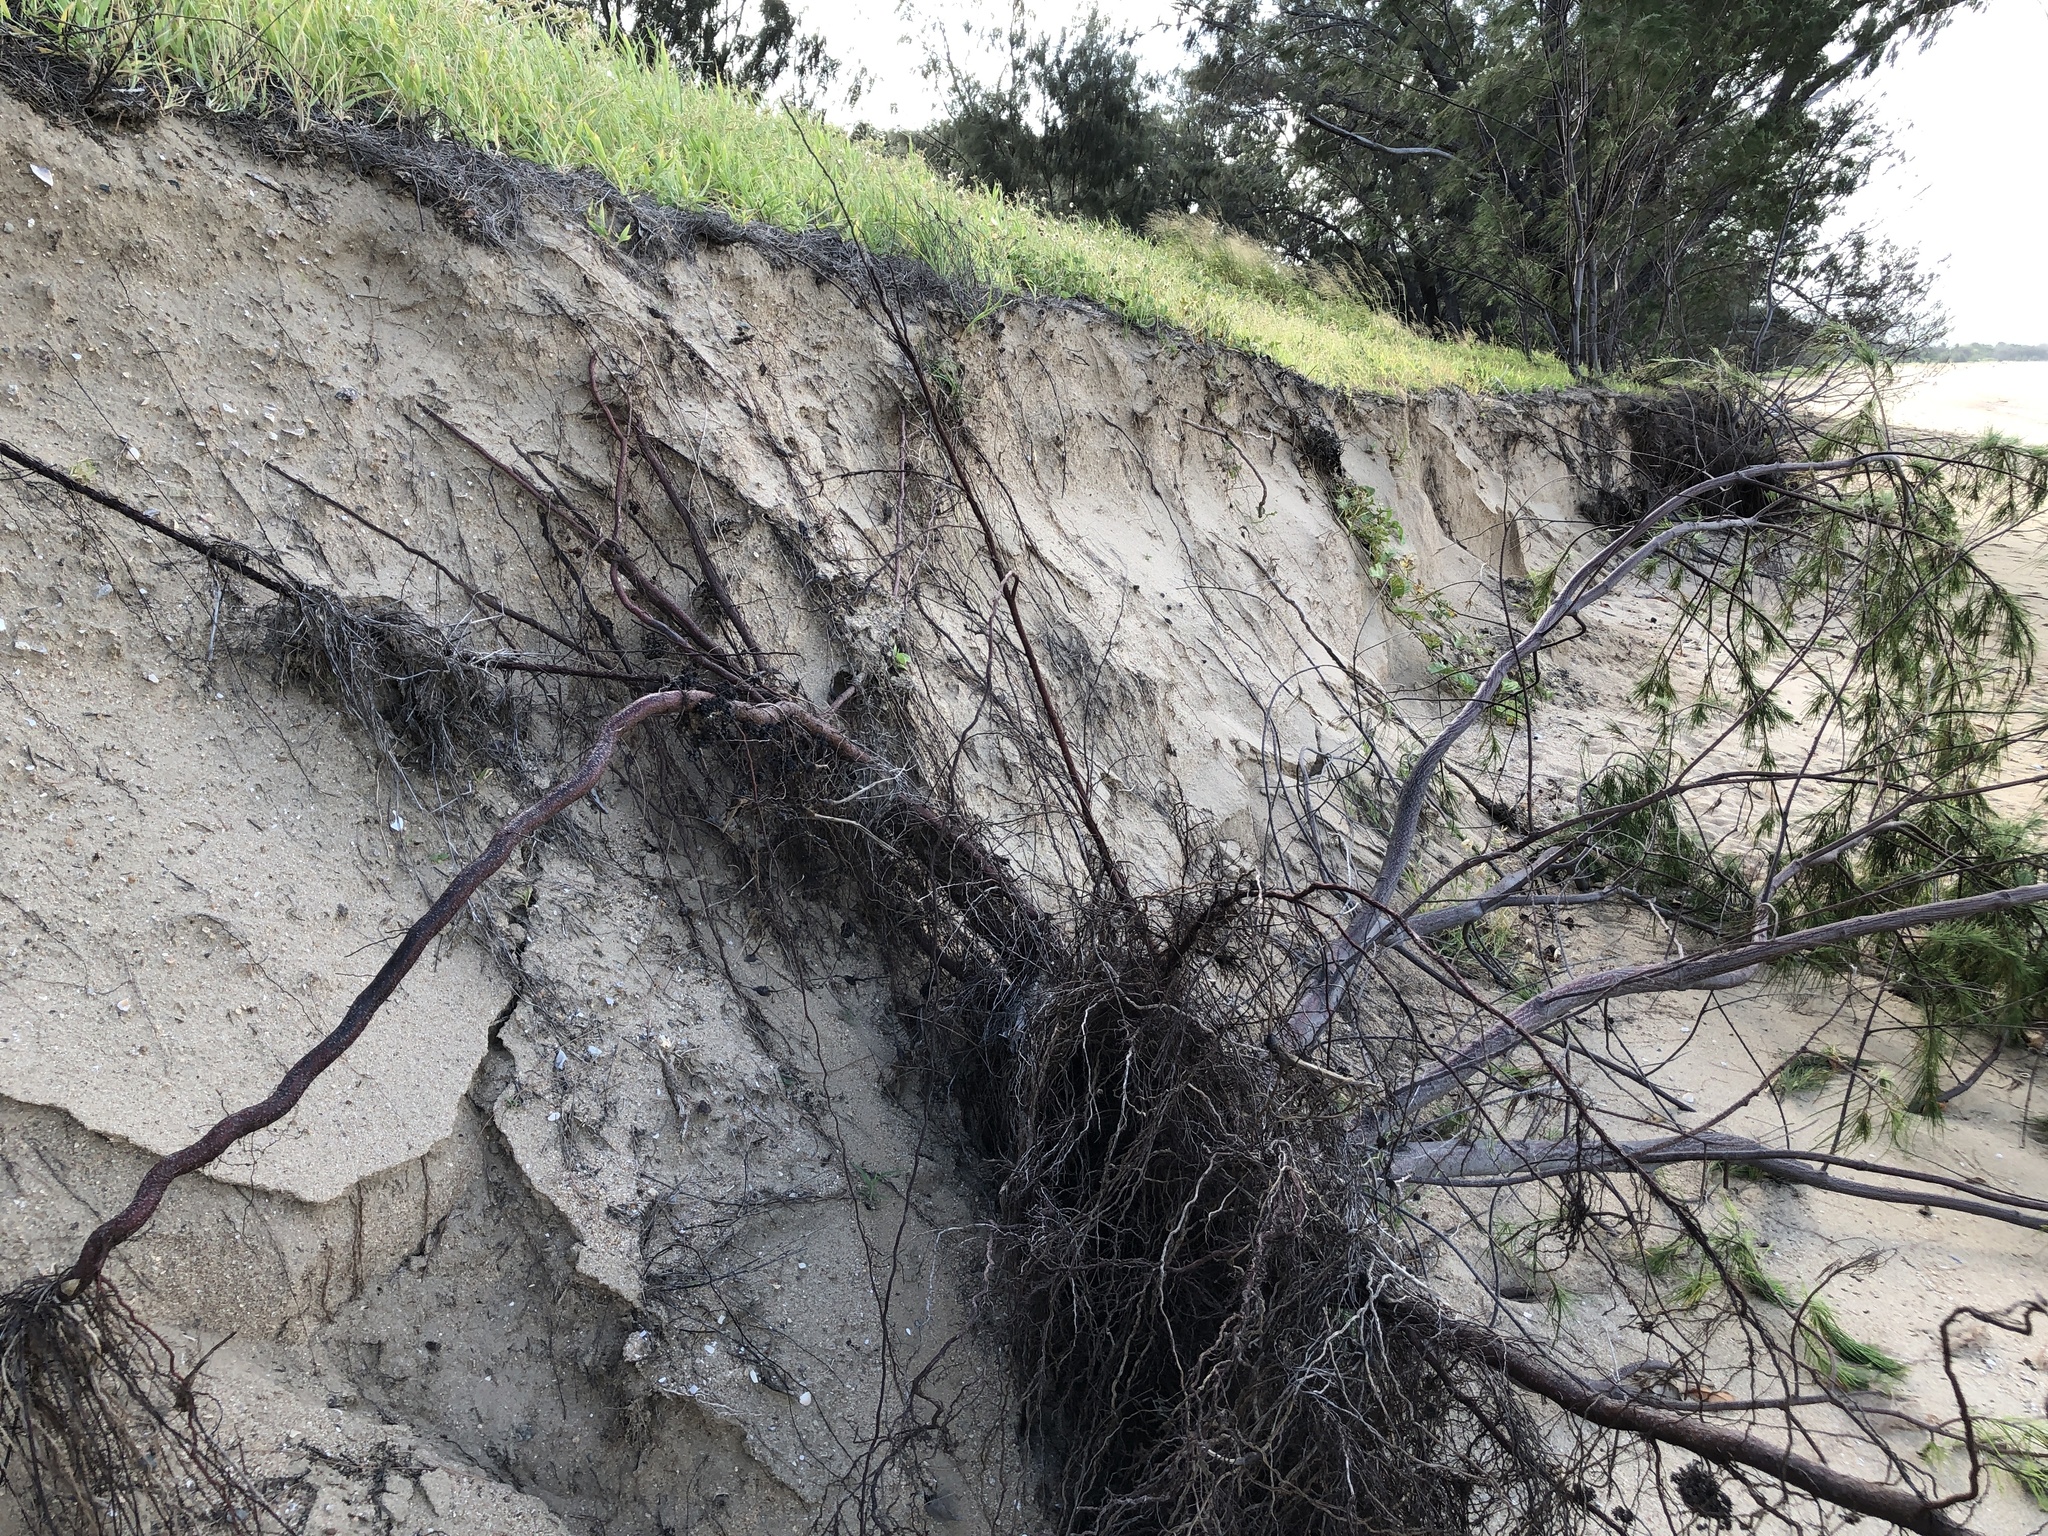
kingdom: Plantae
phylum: Tracheophyta
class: Magnoliopsida
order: Fagales
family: Casuarinaceae
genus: Casuarina
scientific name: Casuarina equisetifolia
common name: Beach sheoak
